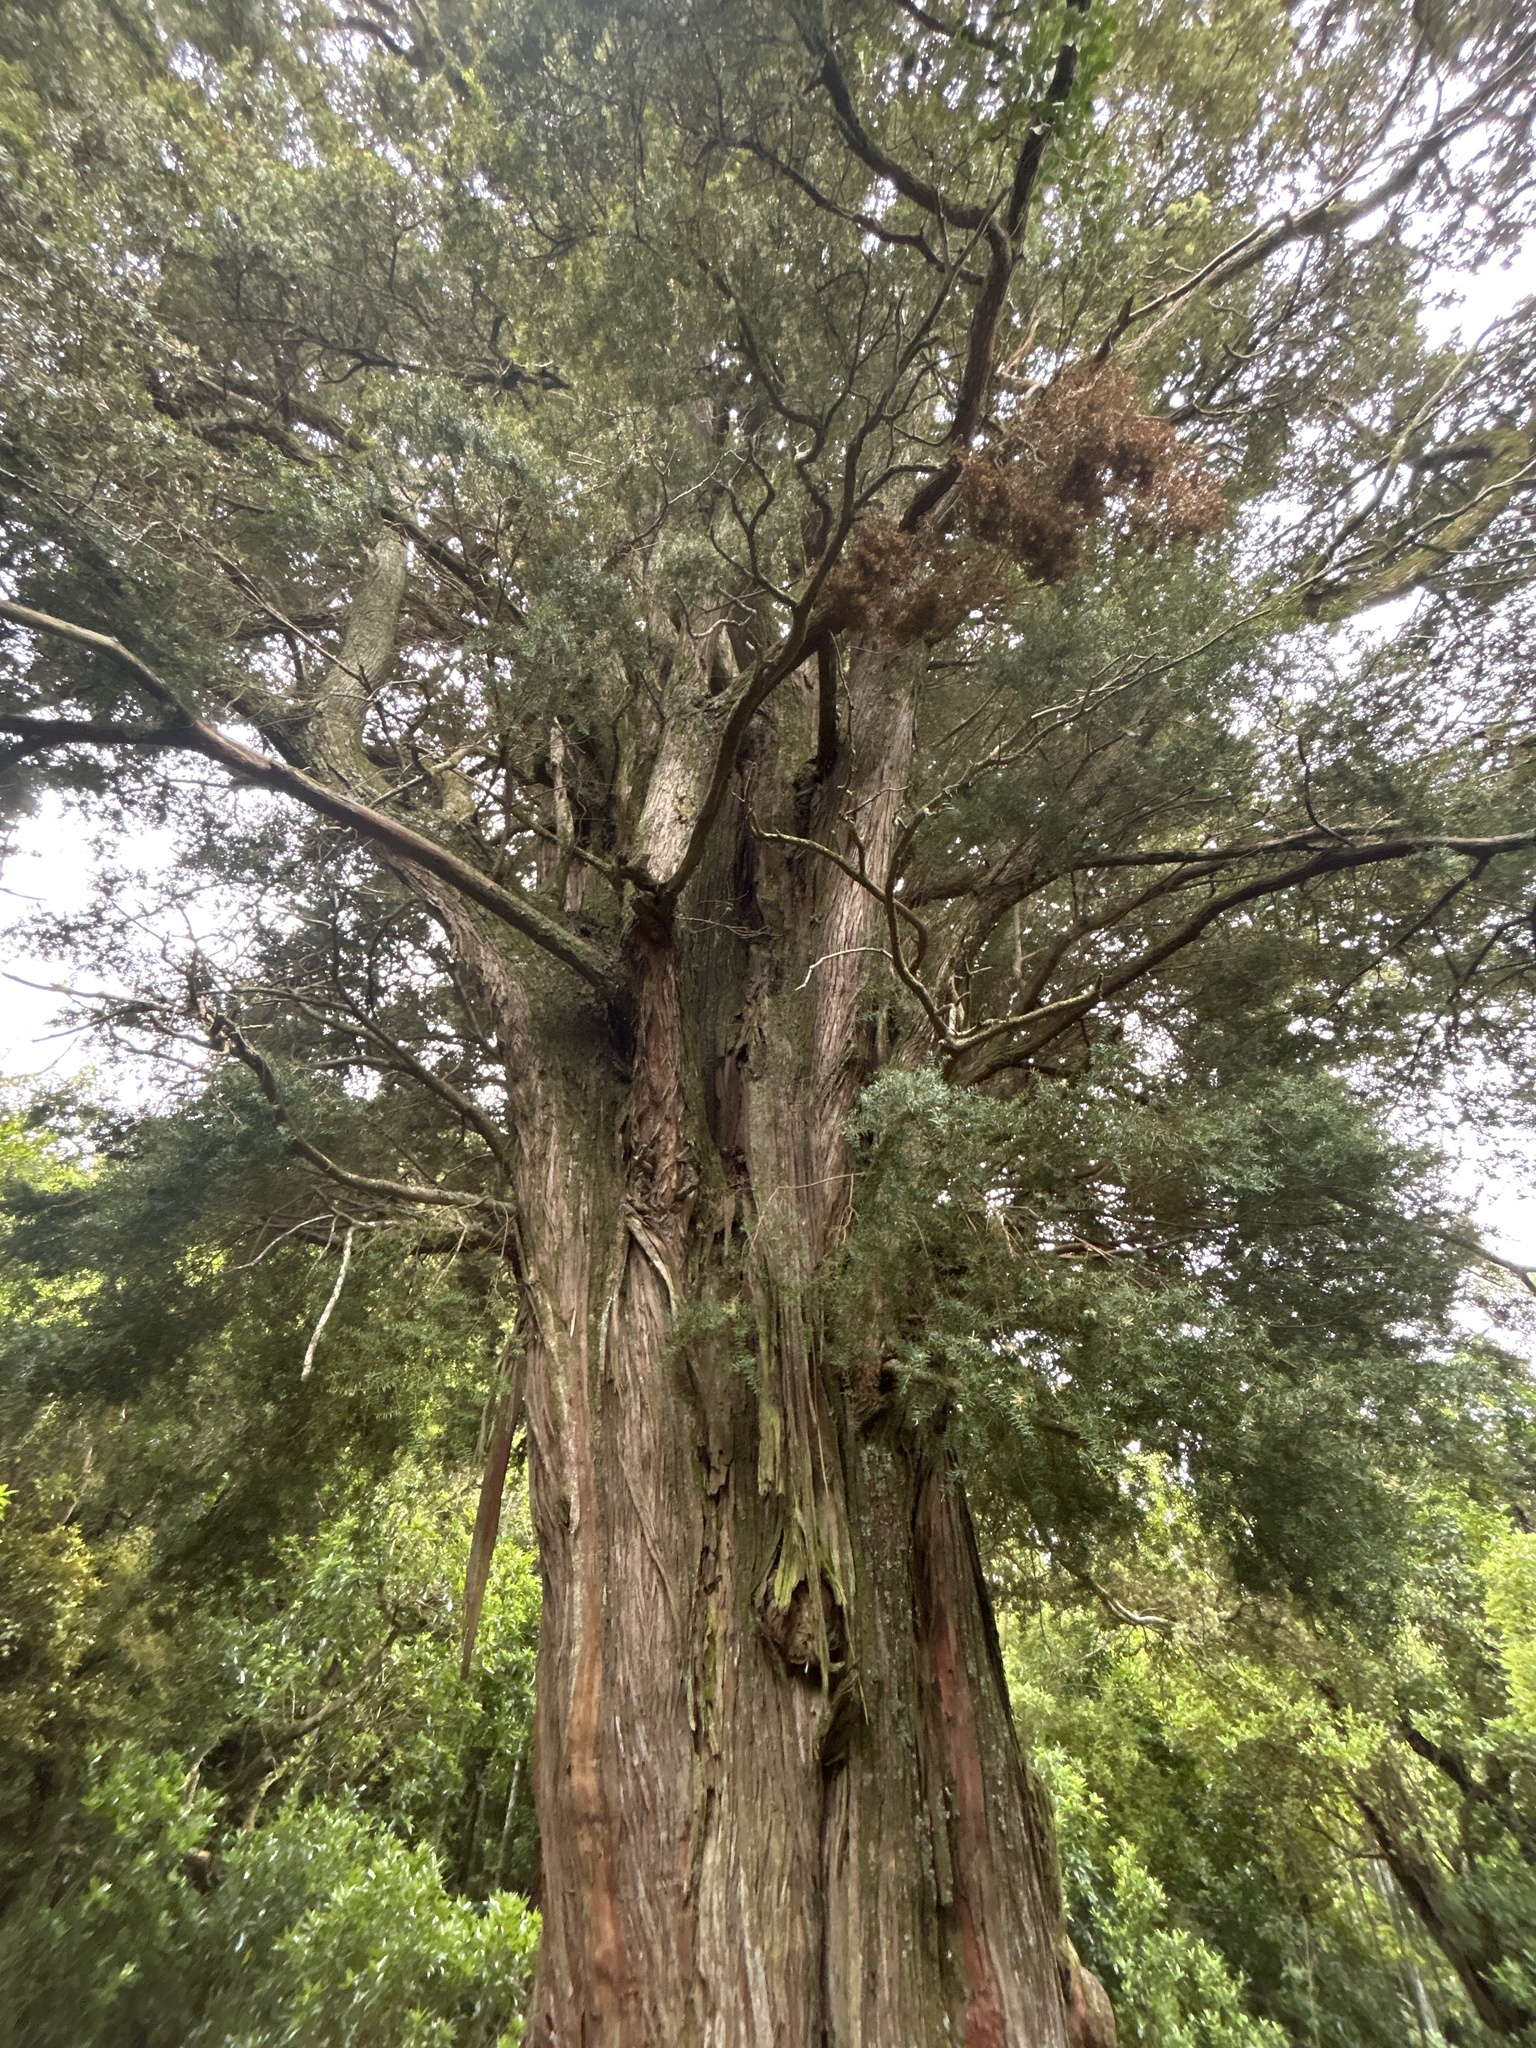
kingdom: Plantae
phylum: Tracheophyta
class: Pinopsida
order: Pinales
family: Podocarpaceae
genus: Podocarpus
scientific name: Podocarpus totara
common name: Totara
